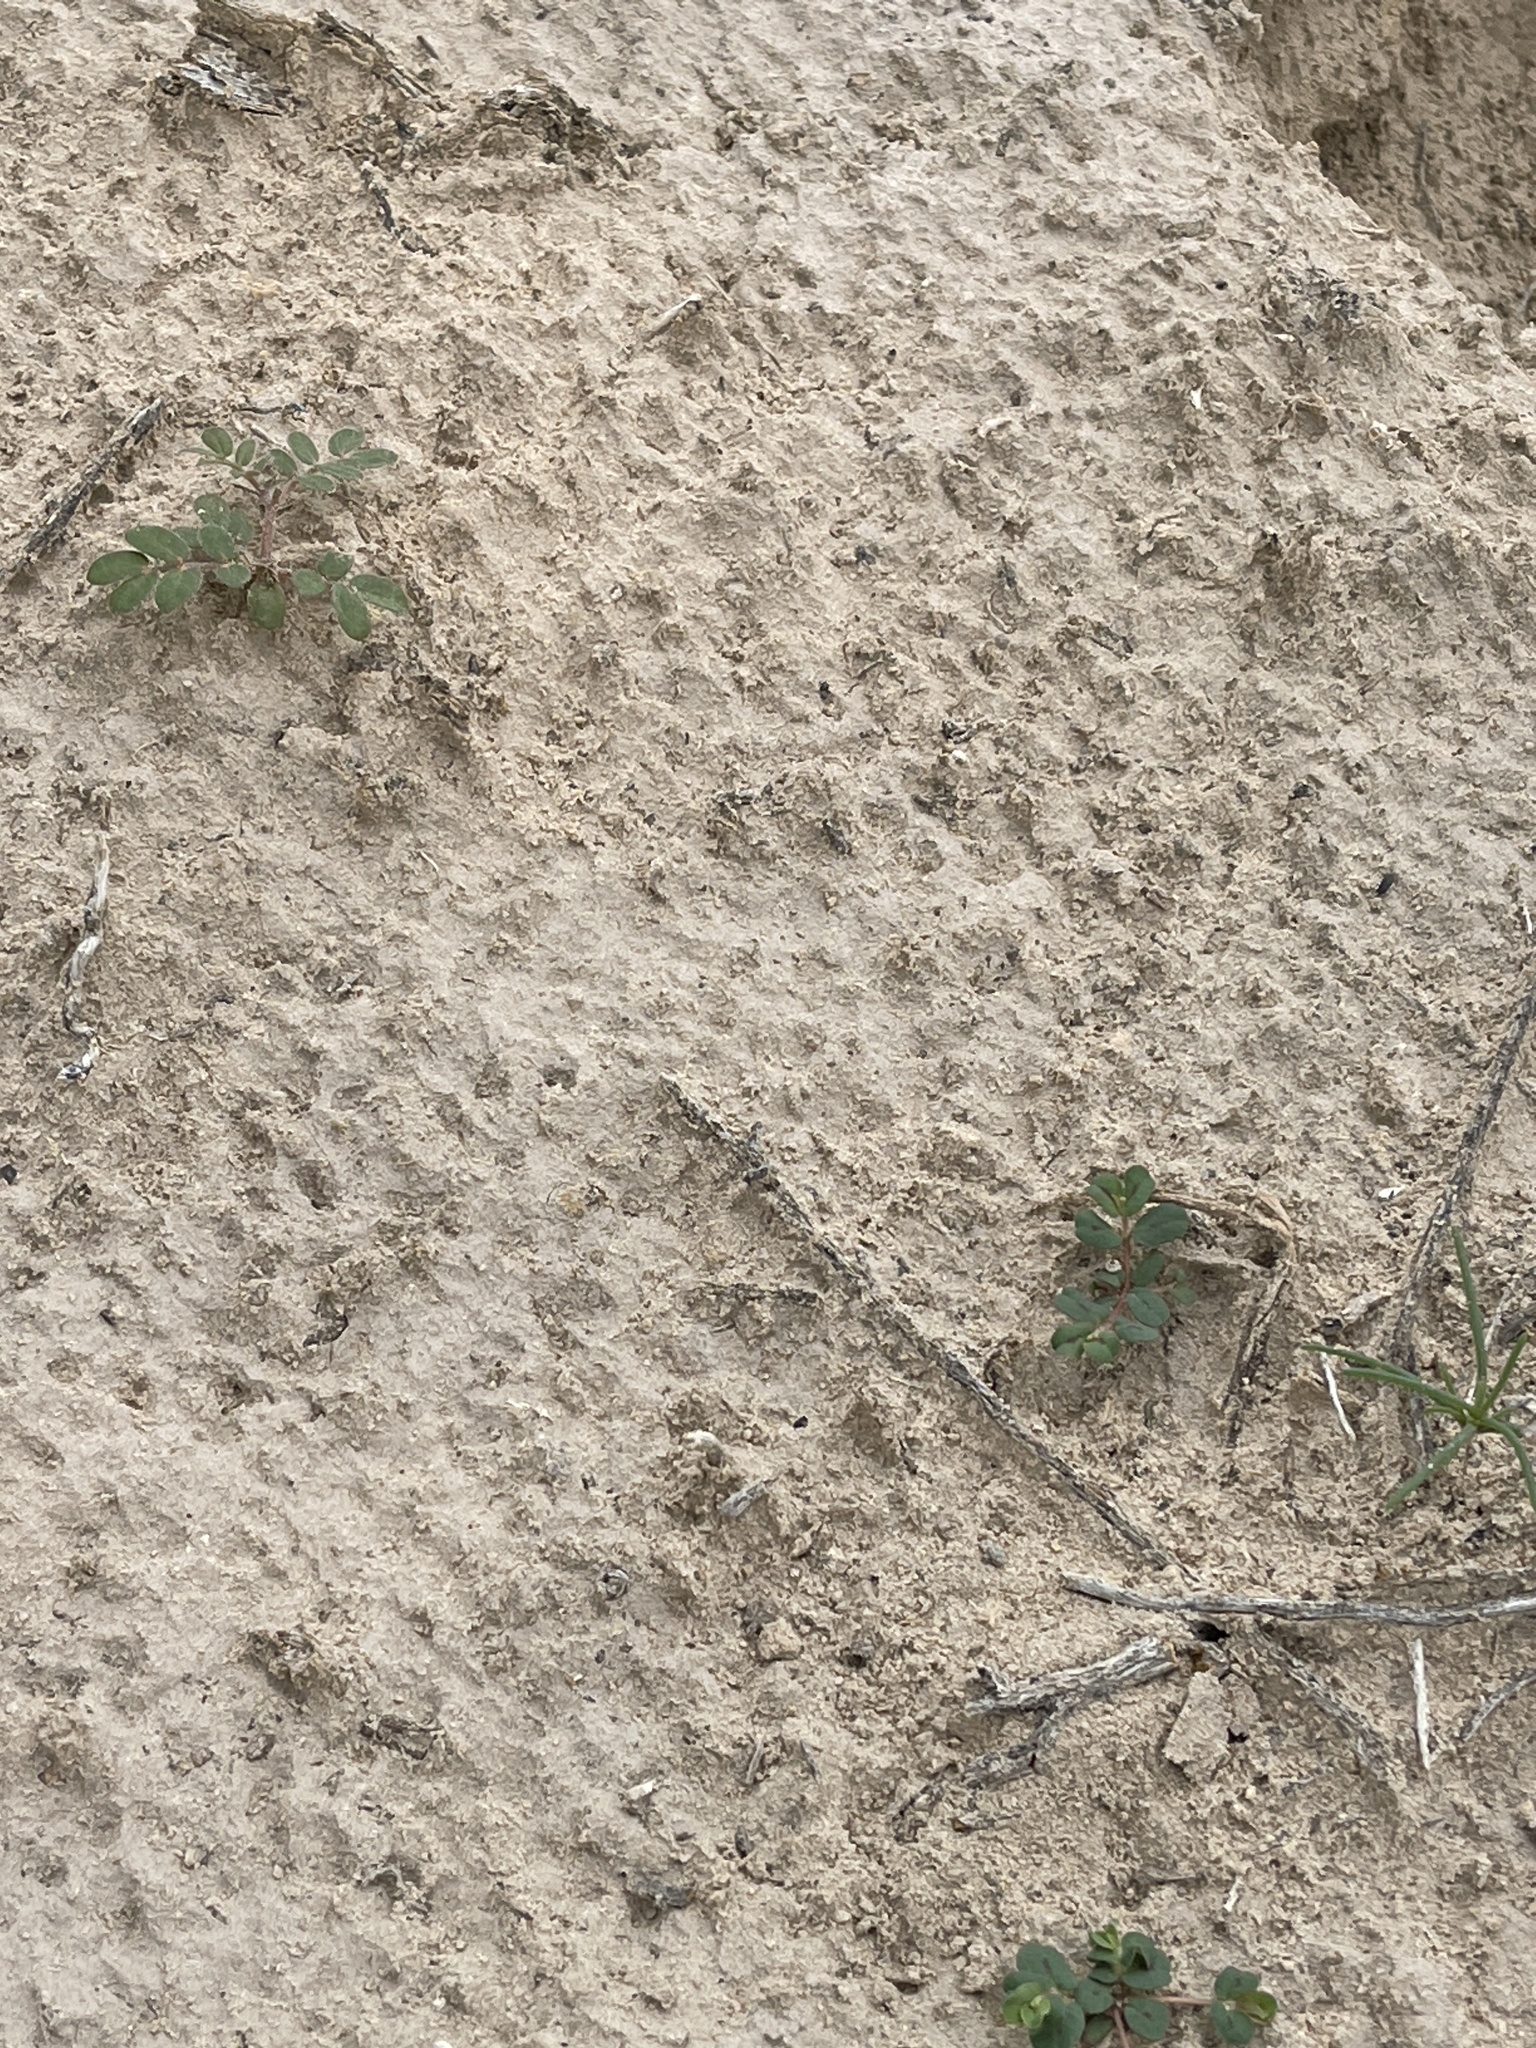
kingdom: Plantae
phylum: Tracheophyta
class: Magnoliopsida
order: Malpighiales
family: Euphorbiaceae
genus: Euphorbia
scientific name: Euphorbia serrula
